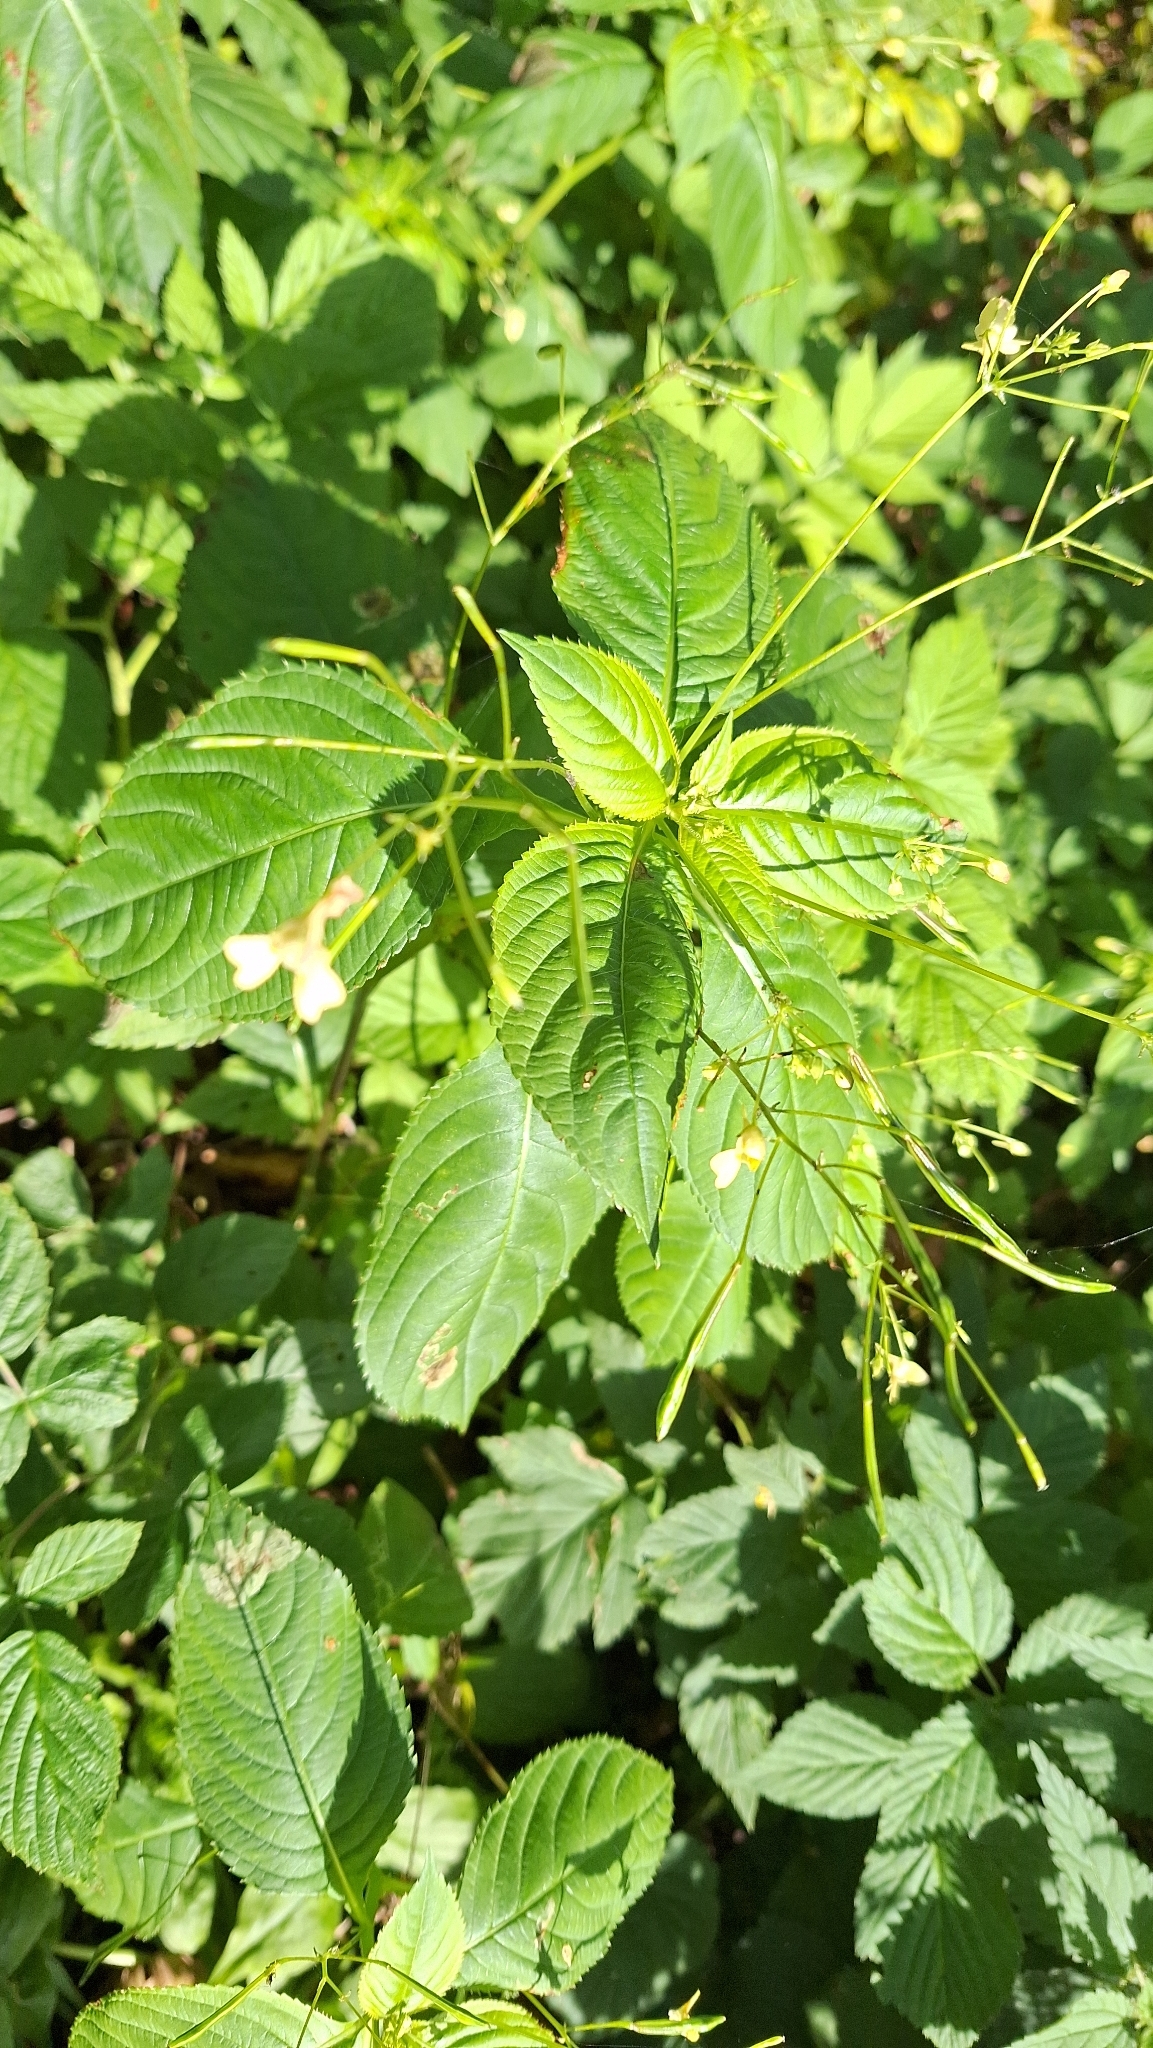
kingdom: Plantae
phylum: Tracheophyta
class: Magnoliopsida
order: Ericales
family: Balsaminaceae
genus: Impatiens
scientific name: Impatiens parviflora
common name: Small balsam
